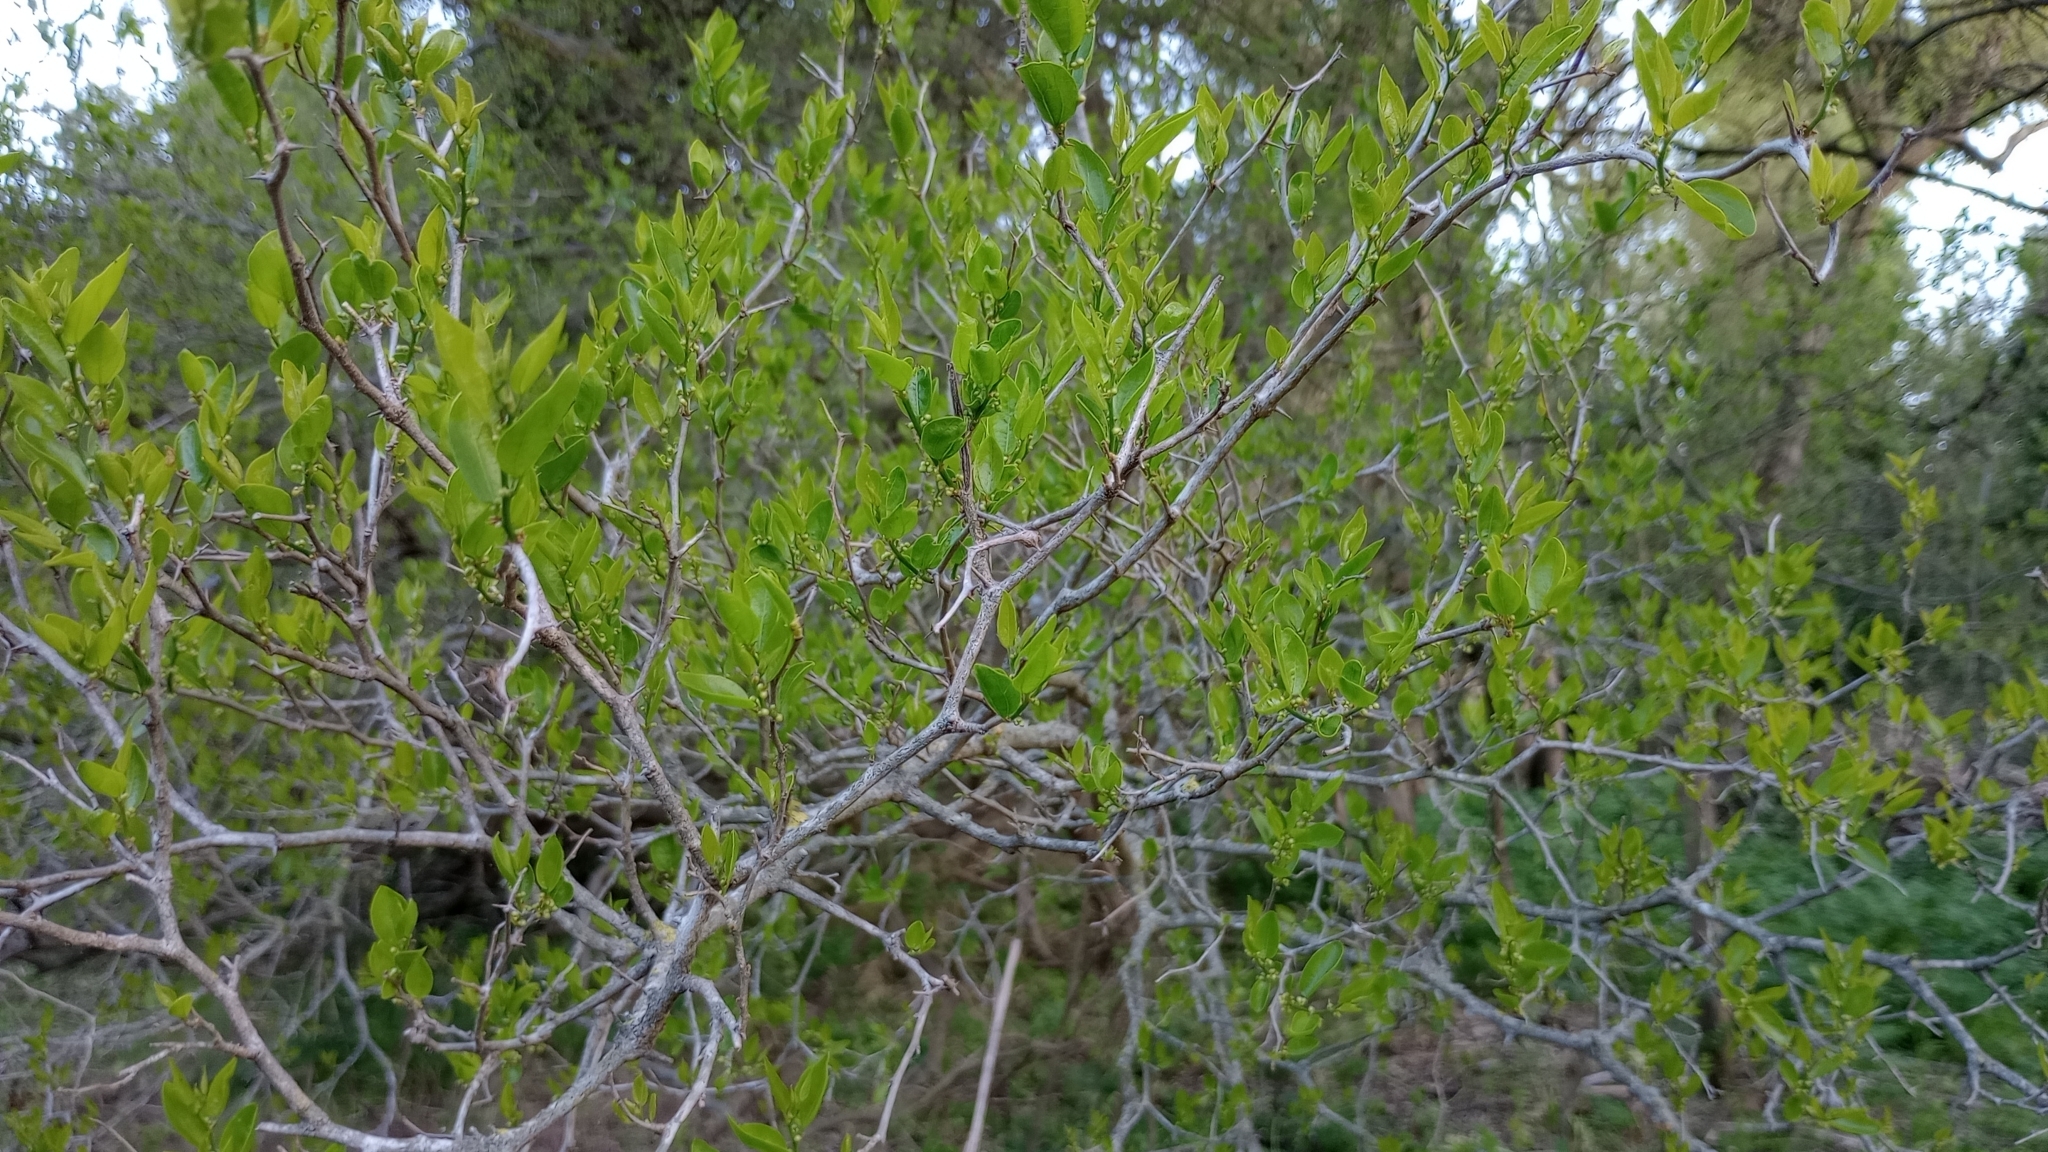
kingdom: Plantae
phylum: Tracheophyta
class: Magnoliopsida
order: Rosales
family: Cannabaceae
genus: Celtis
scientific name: Celtis tala
